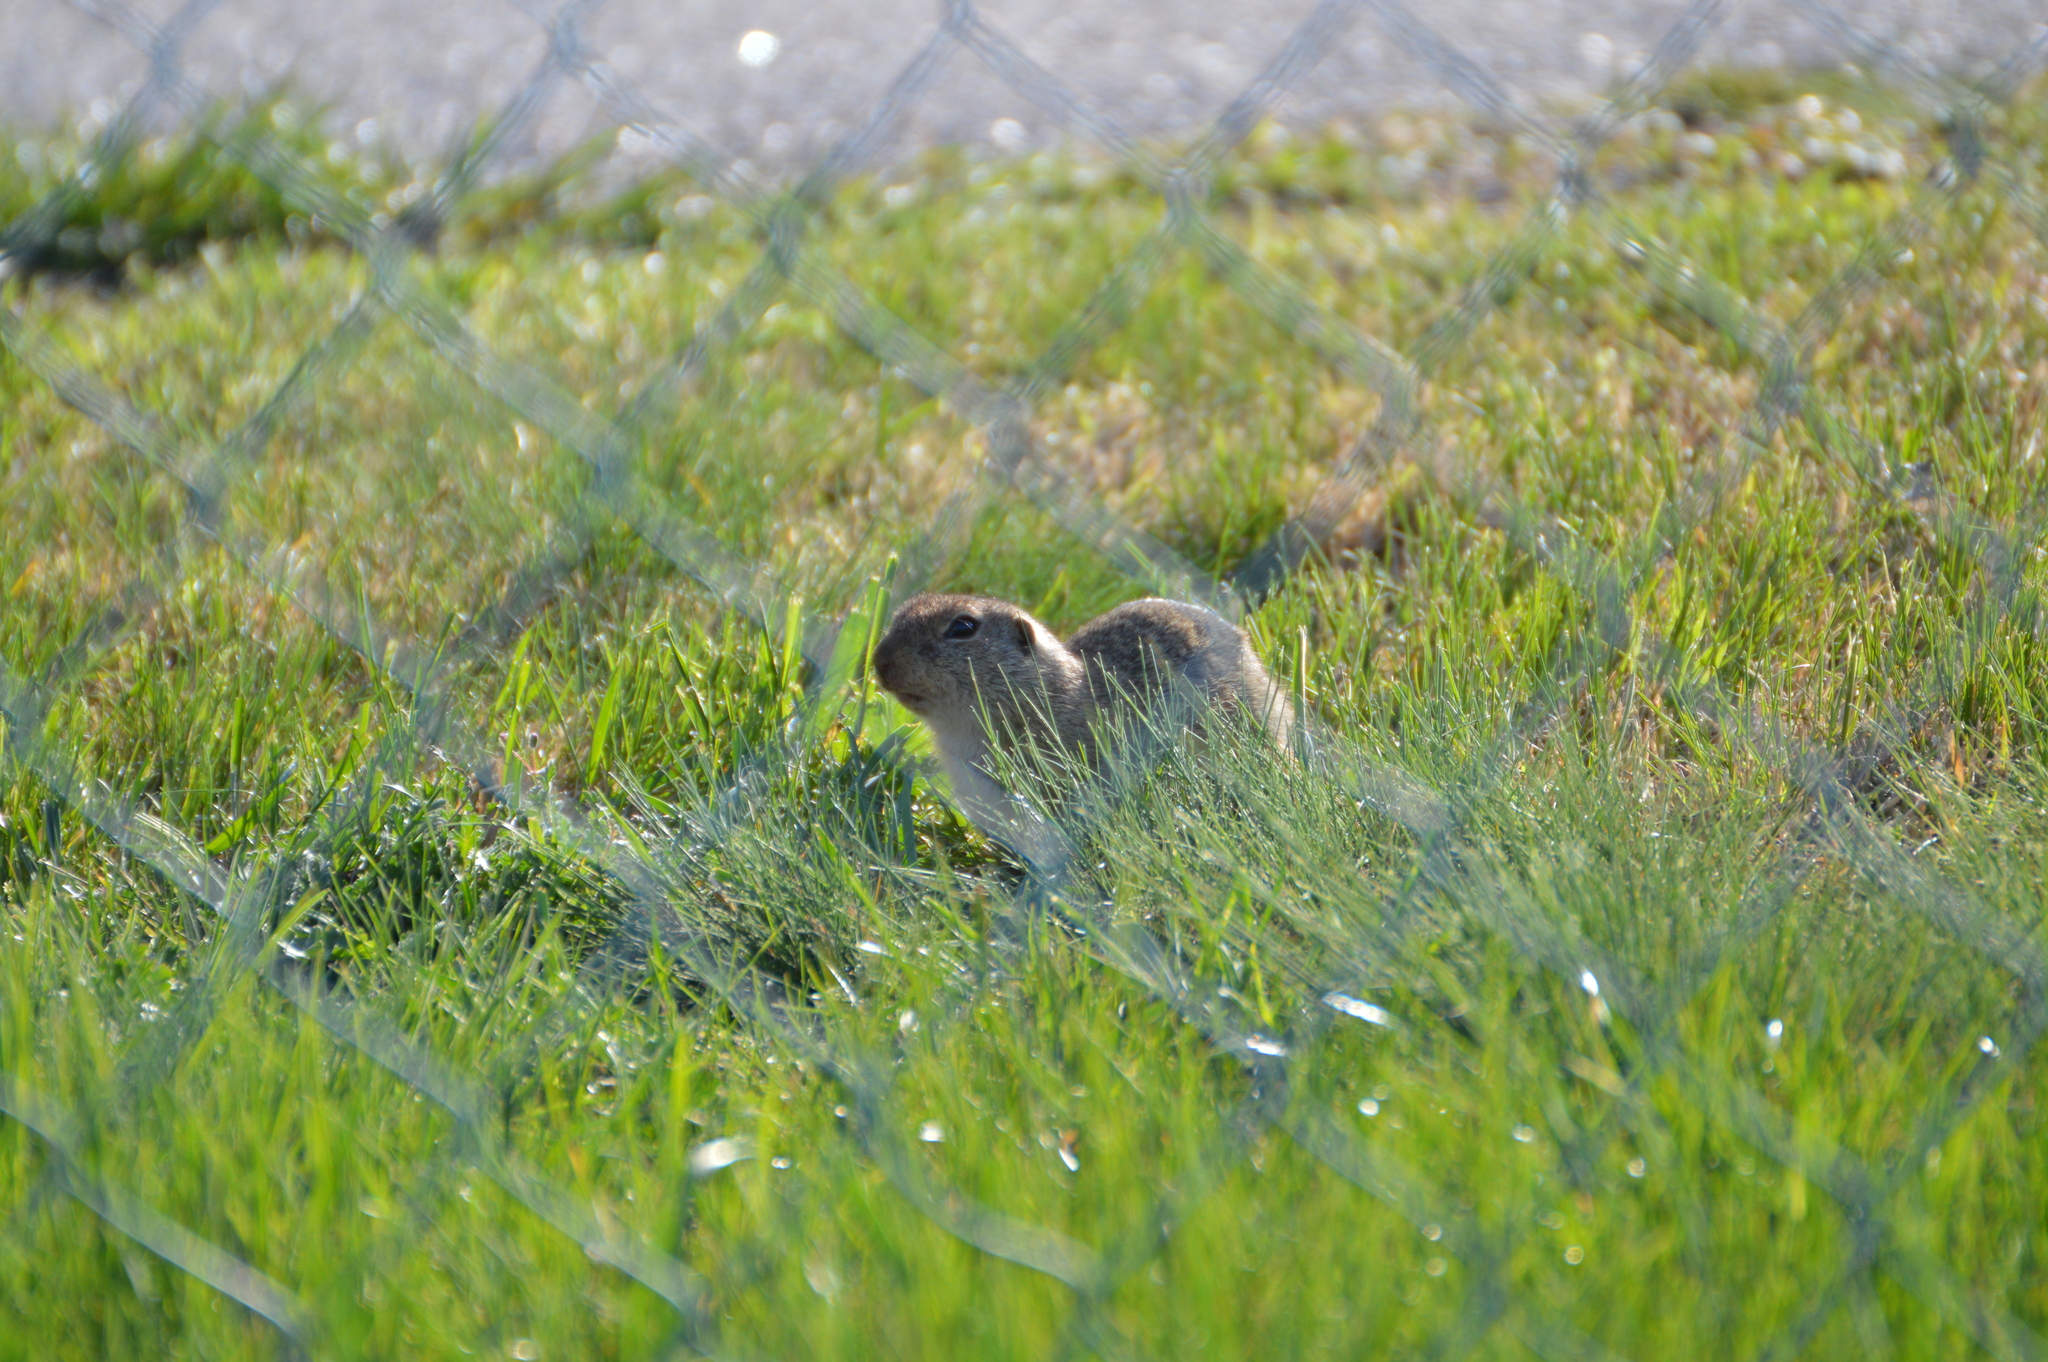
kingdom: Animalia
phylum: Chordata
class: Mammalia
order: Rodentia
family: Sciuridae
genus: Spermophilus
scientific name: Spermophilus citellus
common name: European ground squirrel
